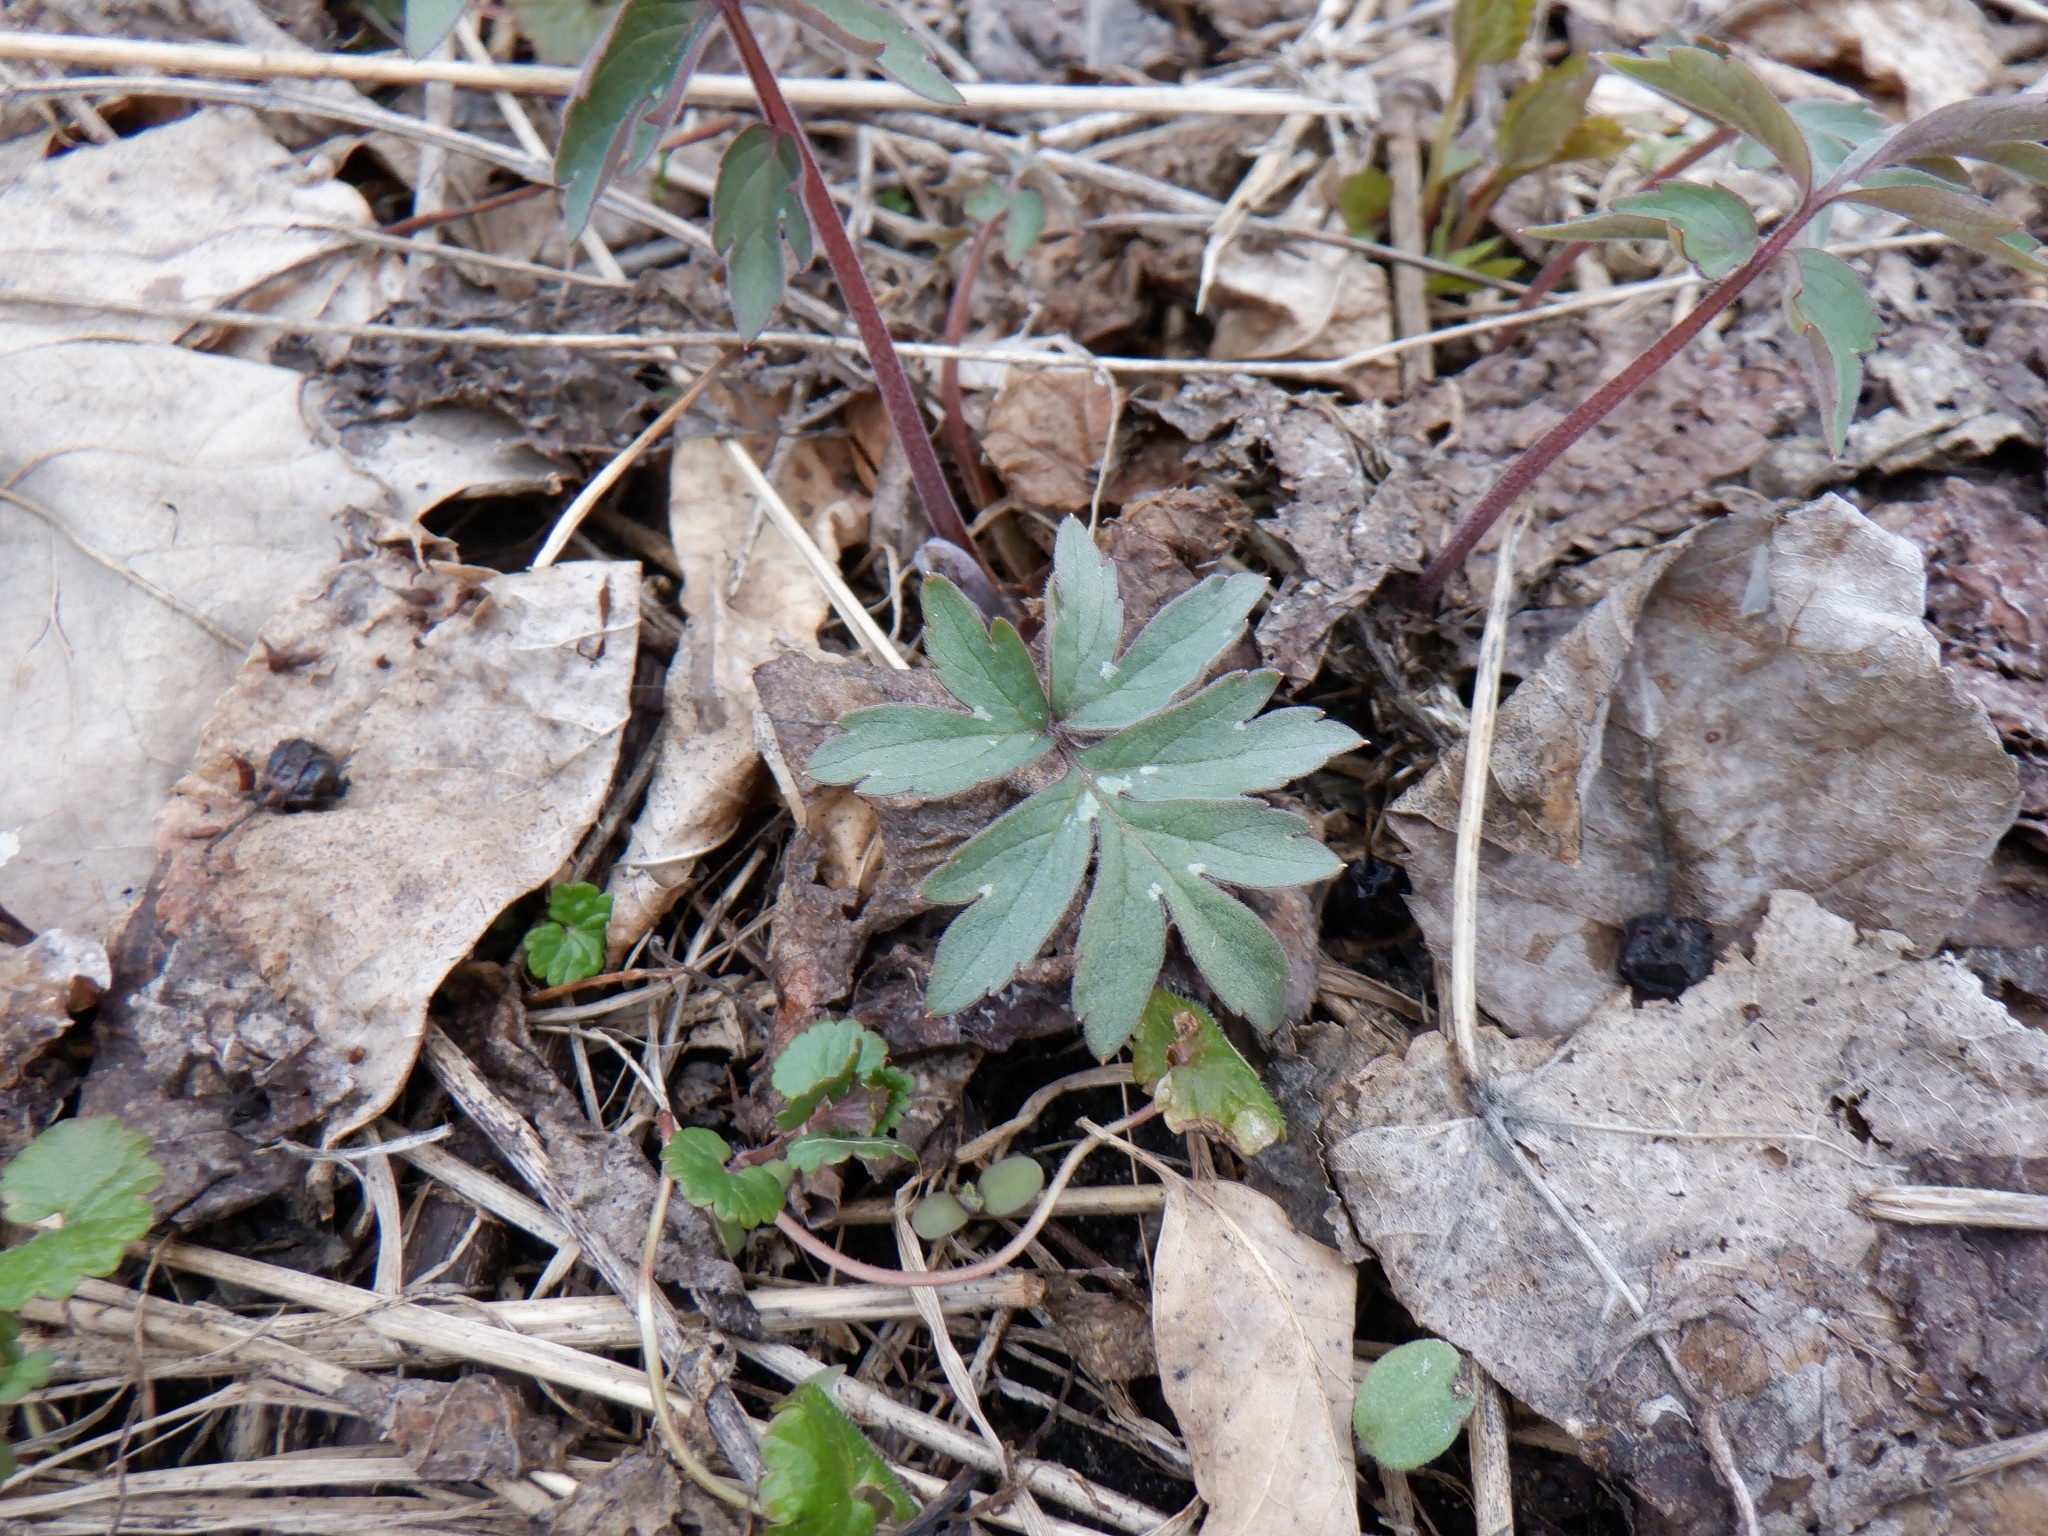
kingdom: Plantae
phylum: Tracheophyta
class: Magnoliopsida
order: Boraginales
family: Hydrophyllaceae
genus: Hydrophyllum
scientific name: Hydrophyllum virginianum
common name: Virginia waterleaf
